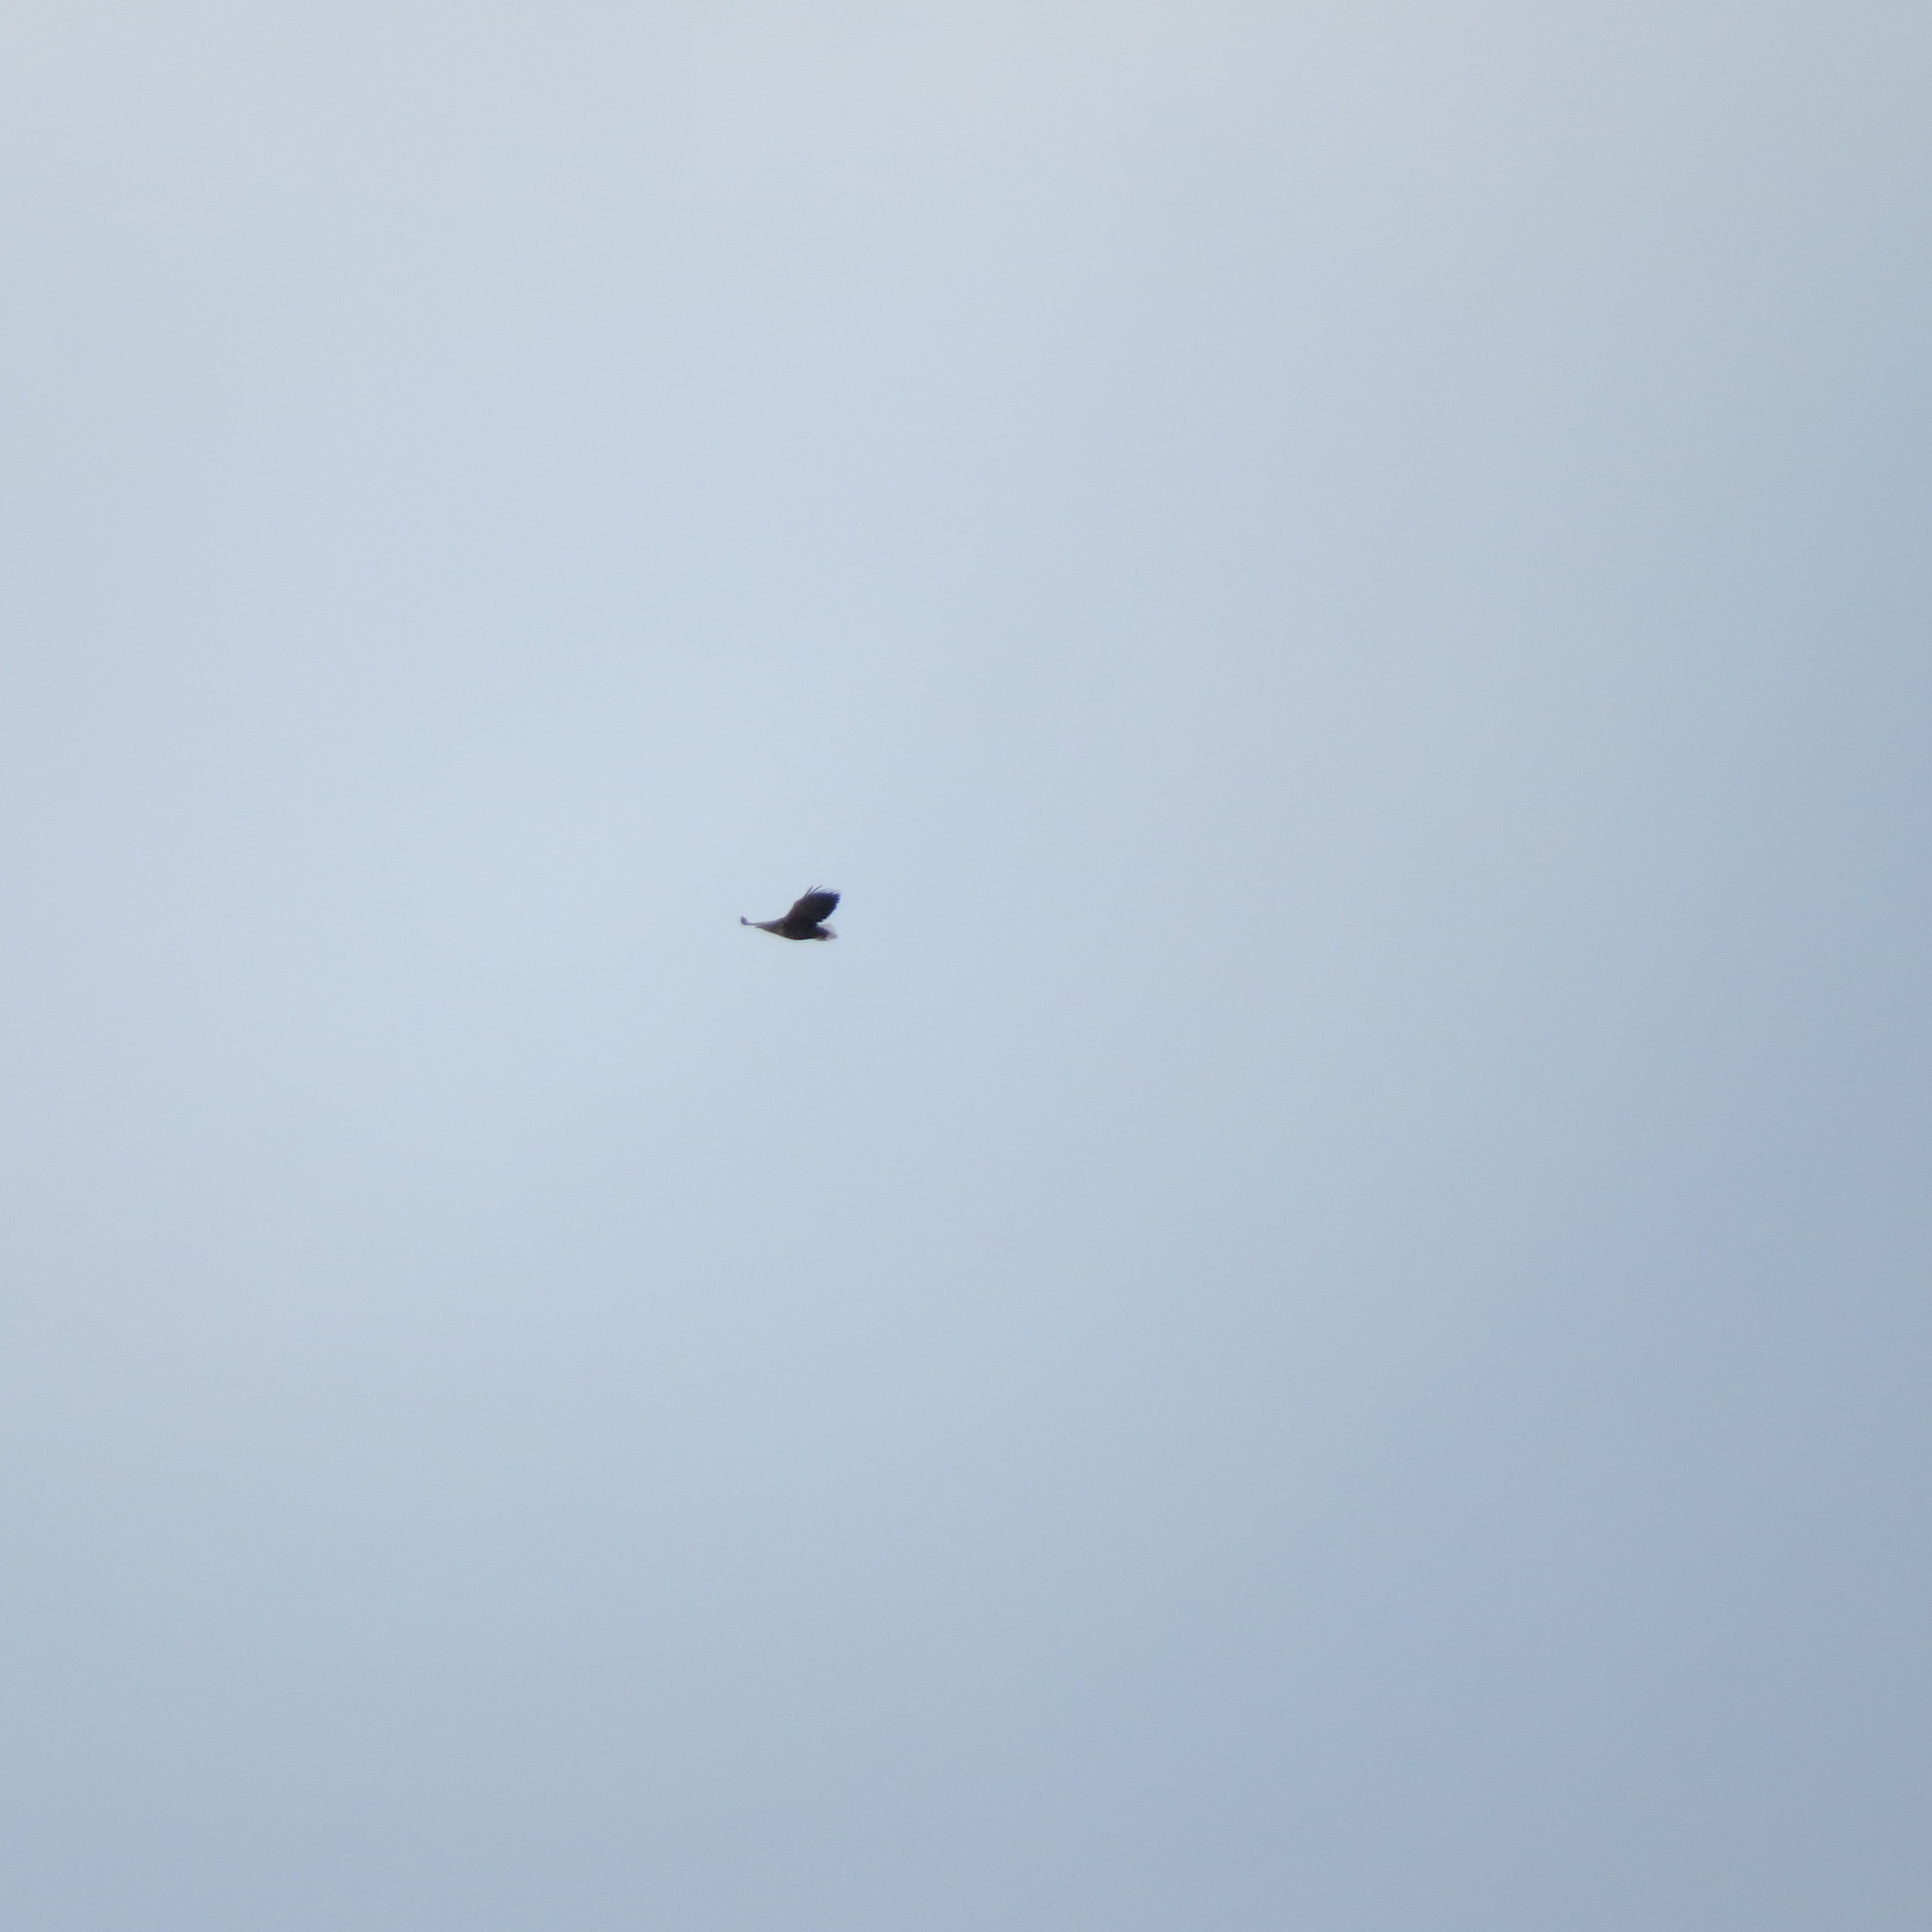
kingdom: Animalia
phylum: Chordata
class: Aves
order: Accipitriformes
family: Accipitridae
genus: Haliaeetus
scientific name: Haliaeetus albicilla
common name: White-tailed eagle
